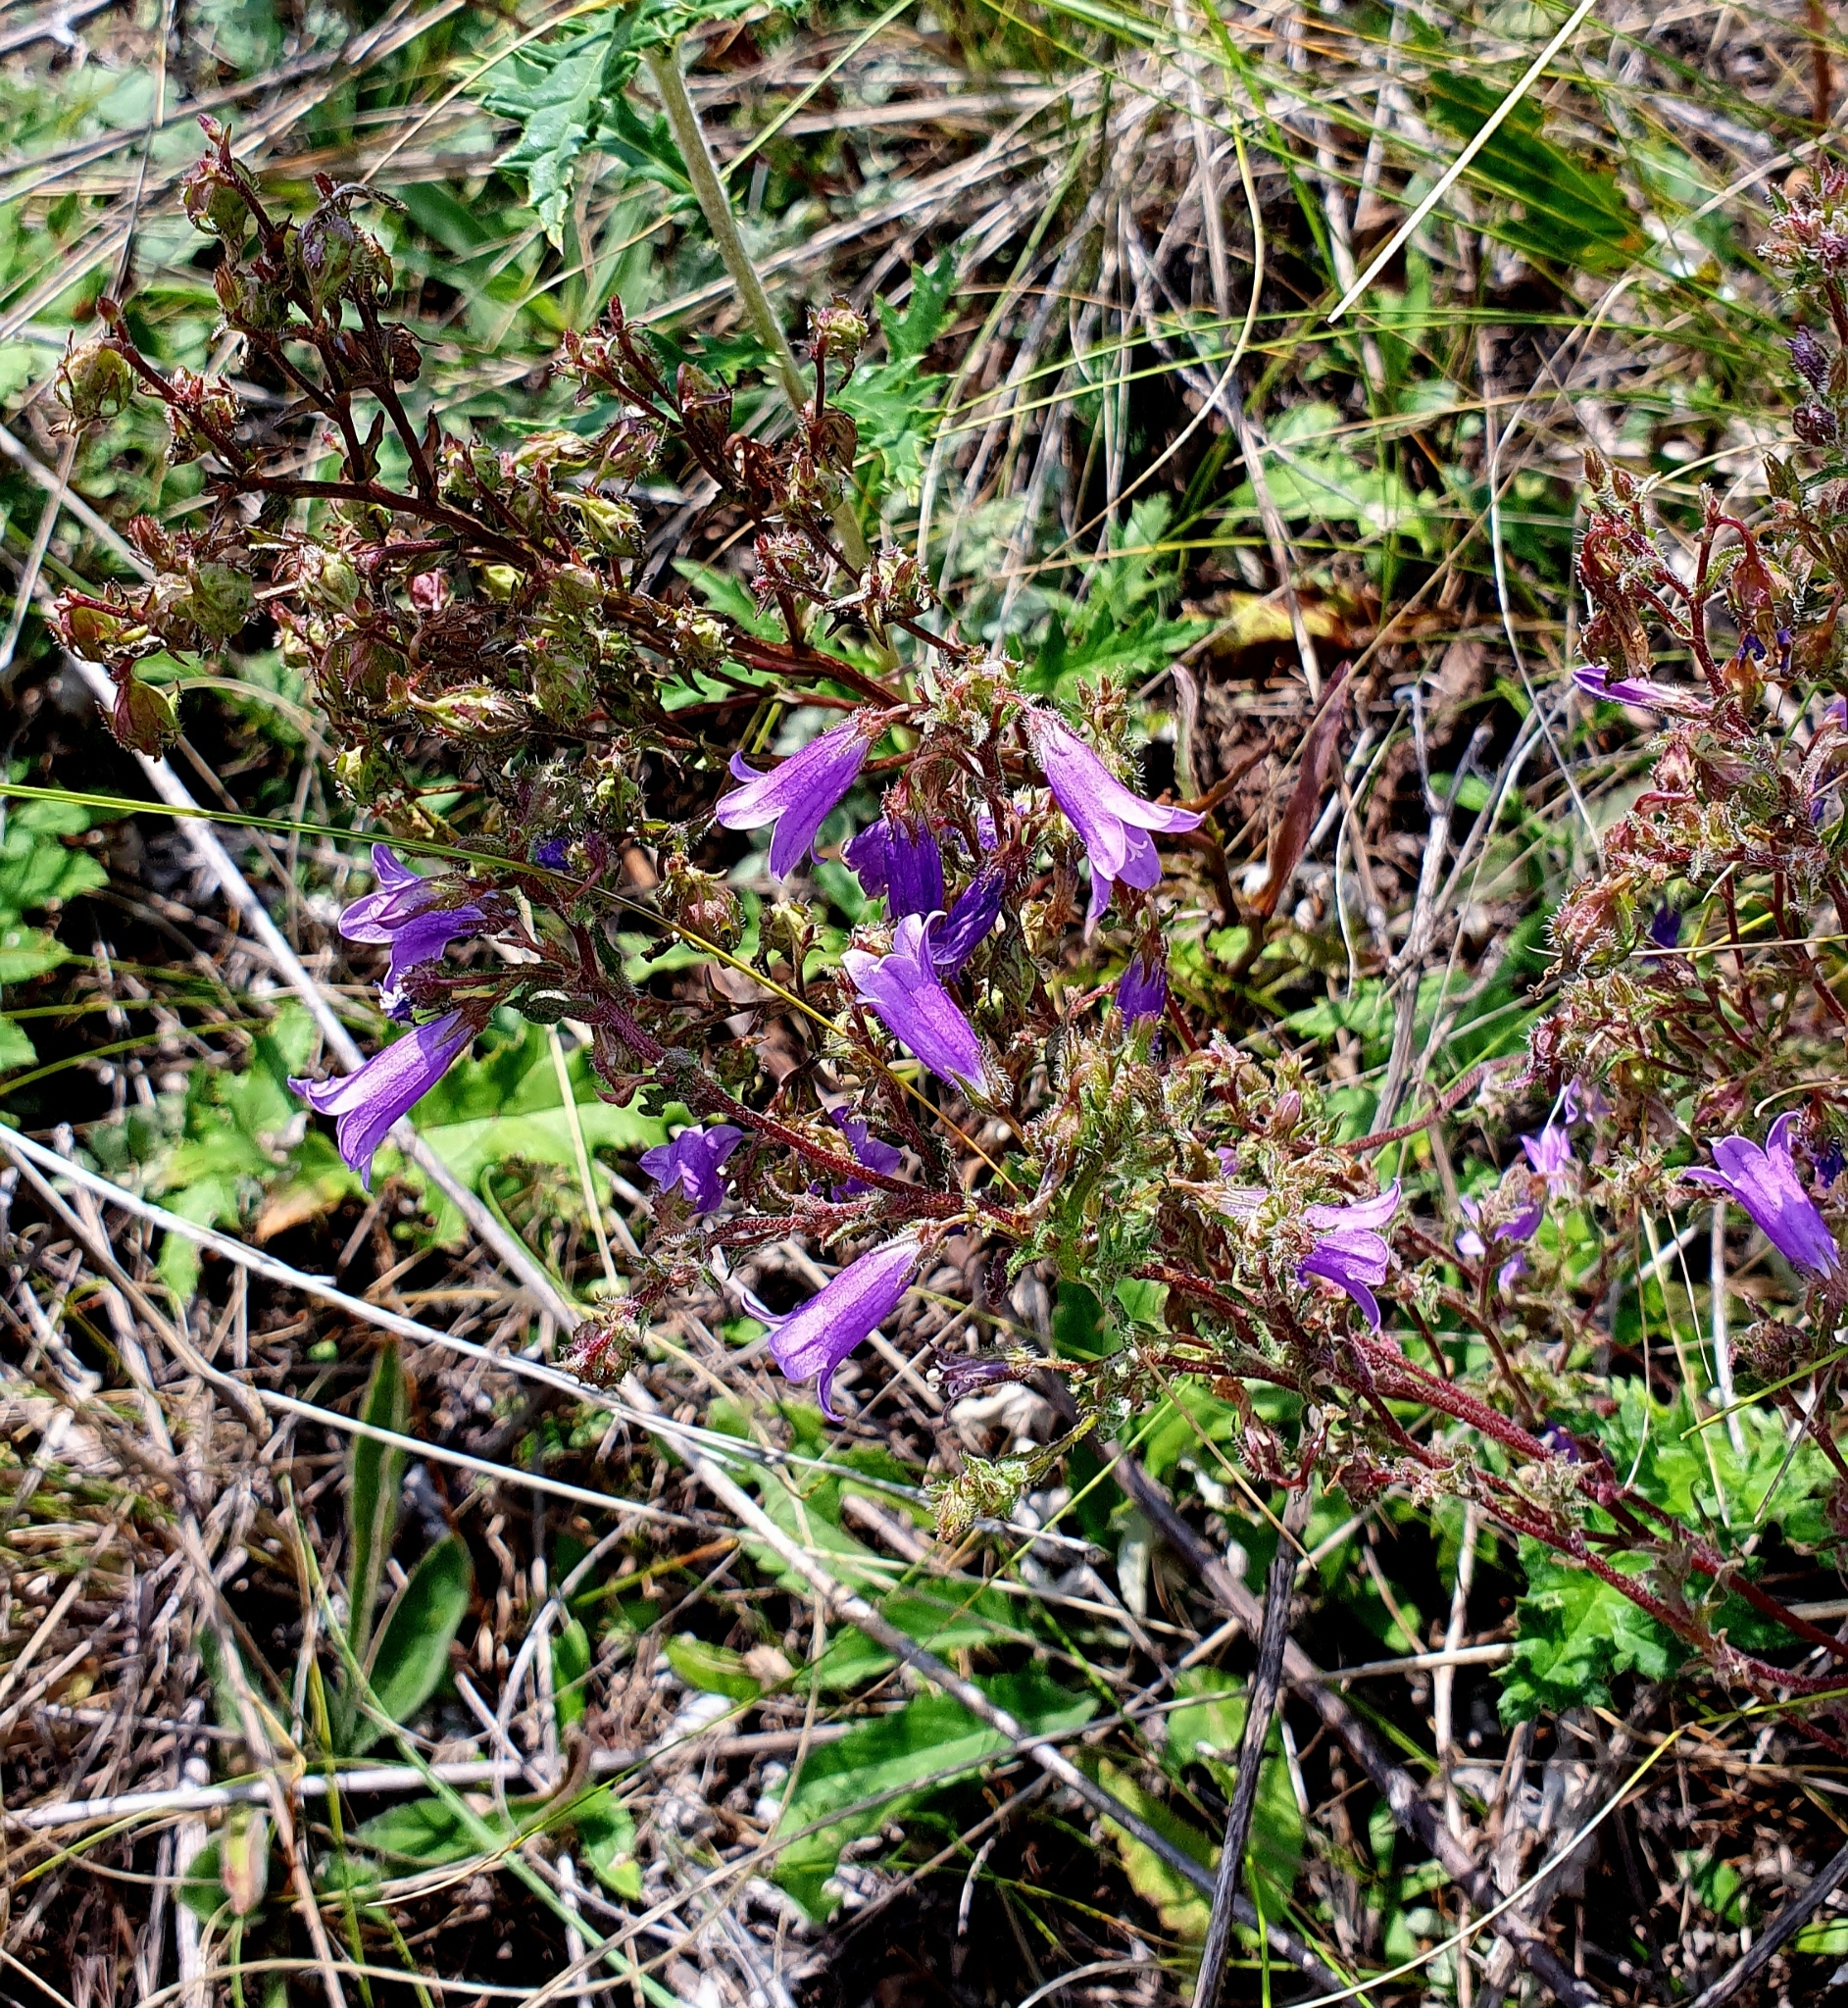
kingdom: Plantae
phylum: Tracheophyta
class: Magnoliopsida
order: Asterales
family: Campanulaceae
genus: Campanula
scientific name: Campanula sibirica
